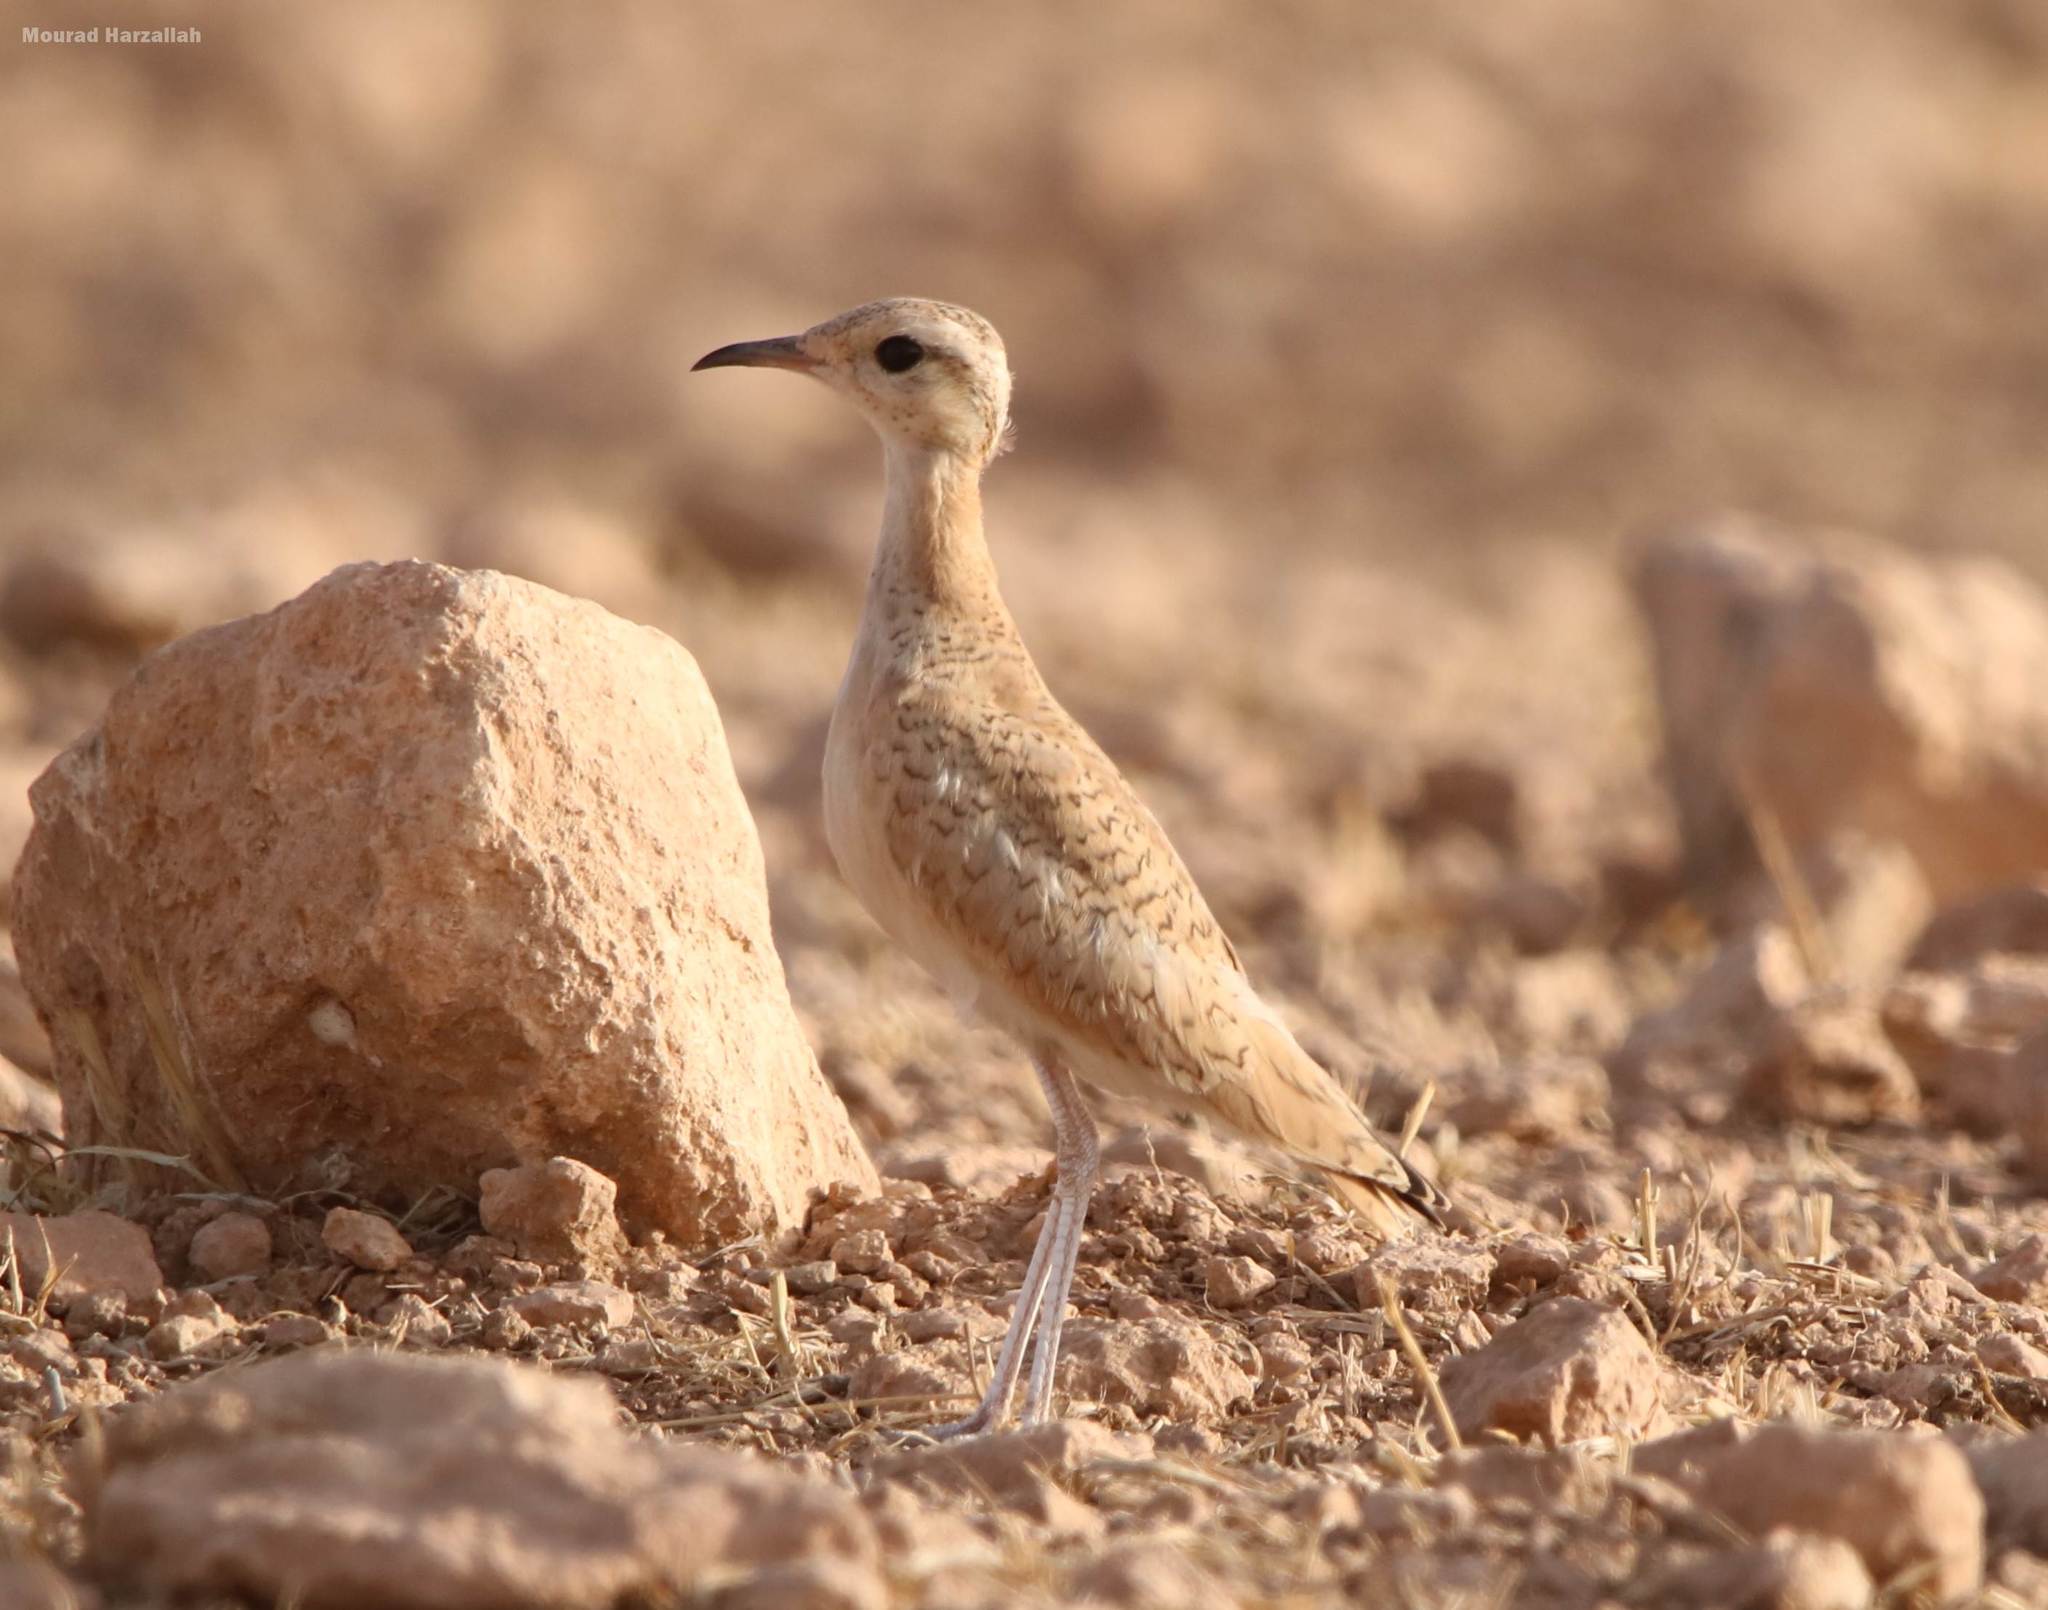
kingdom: Animalia
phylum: Chordata
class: Aves
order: Charadriiformes
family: Glareolidae
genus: Cursorius
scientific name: Cursorius cursor
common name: Cream-colored courser
